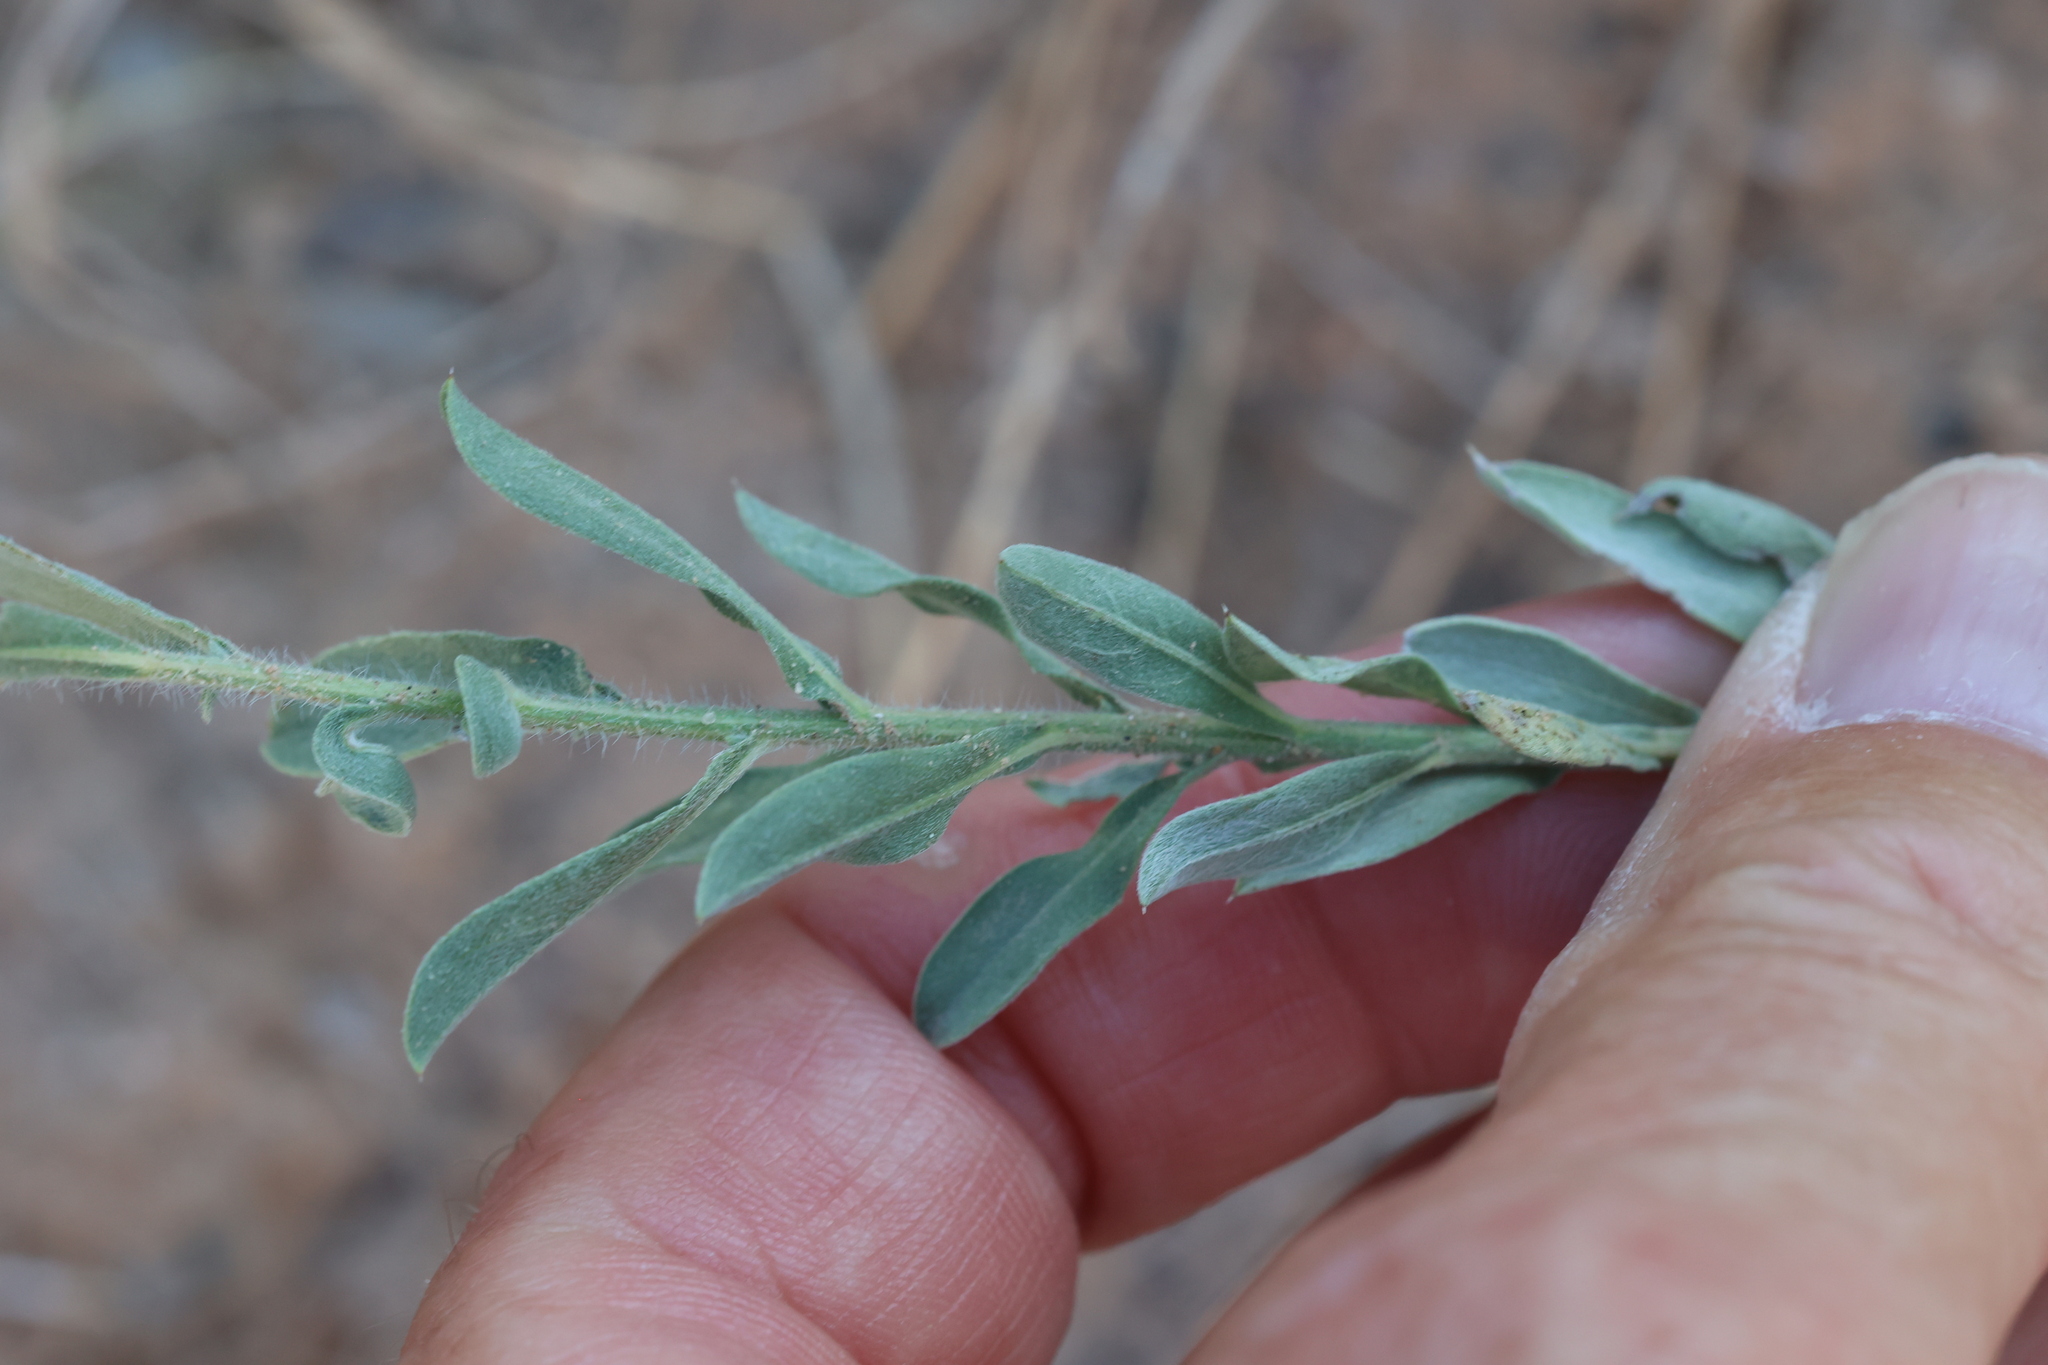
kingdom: Plantae
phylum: Tracheophyta
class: Magnoliopsida
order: Asterales
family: Asteraceae
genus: Heterotheca
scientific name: Heterotheca zionensis
